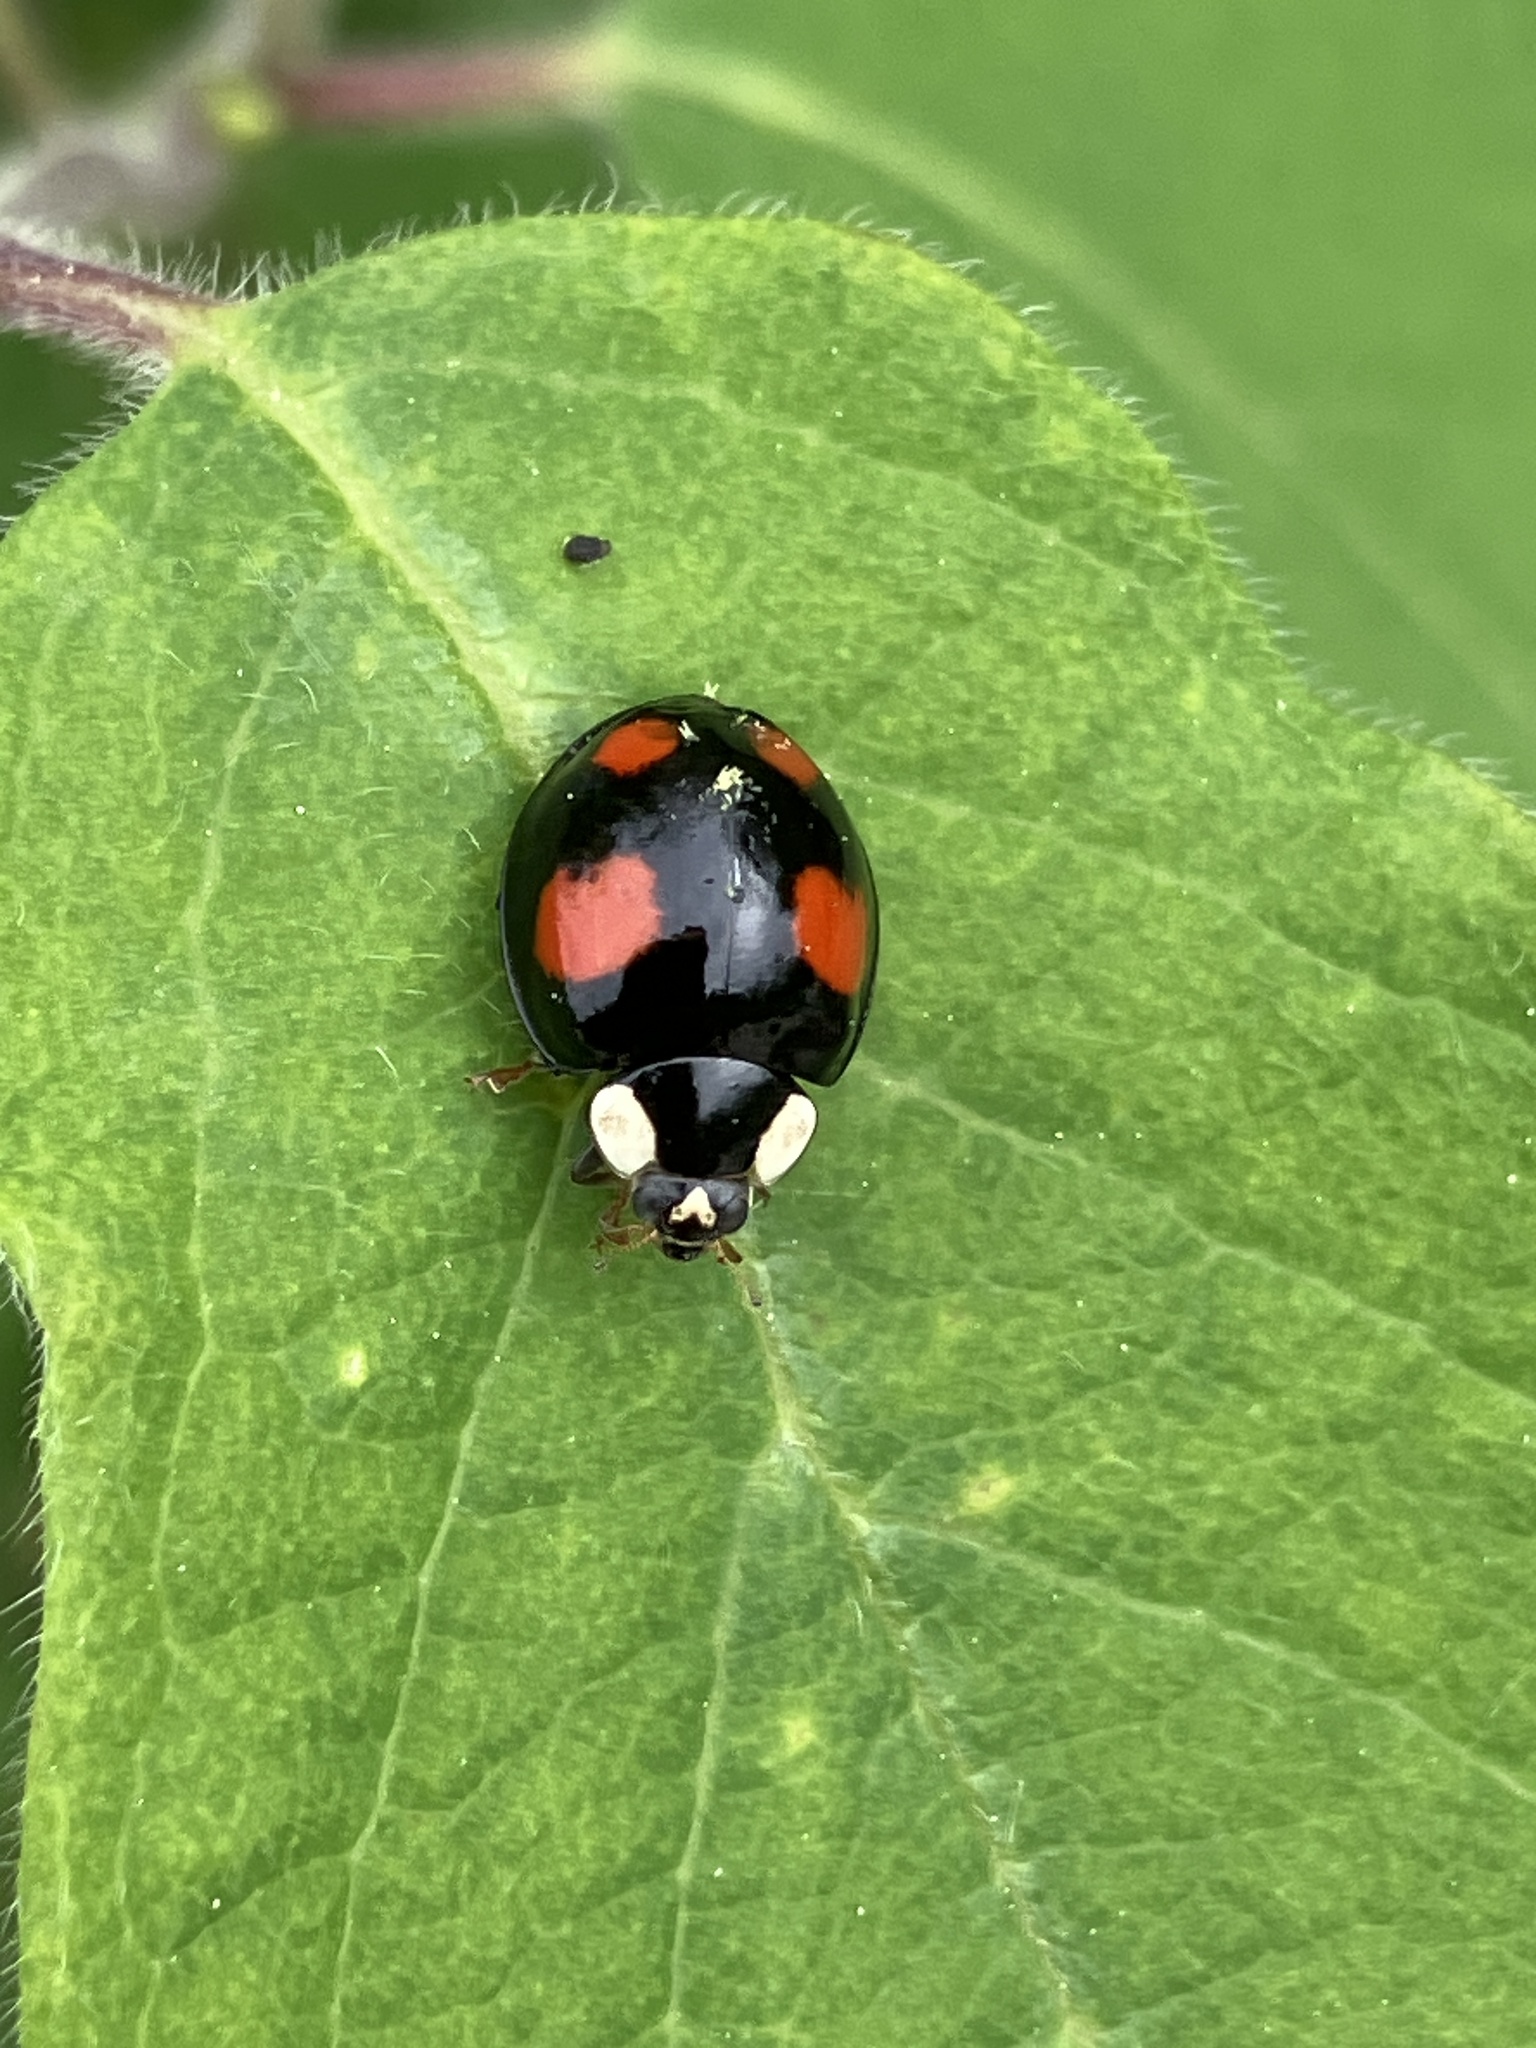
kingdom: Animalia
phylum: Arthropoda
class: Insecta
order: Coleoptera
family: Coccinellidae
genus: Harmonia
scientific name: Harmonia axyridis
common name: Harlequin ladybird
